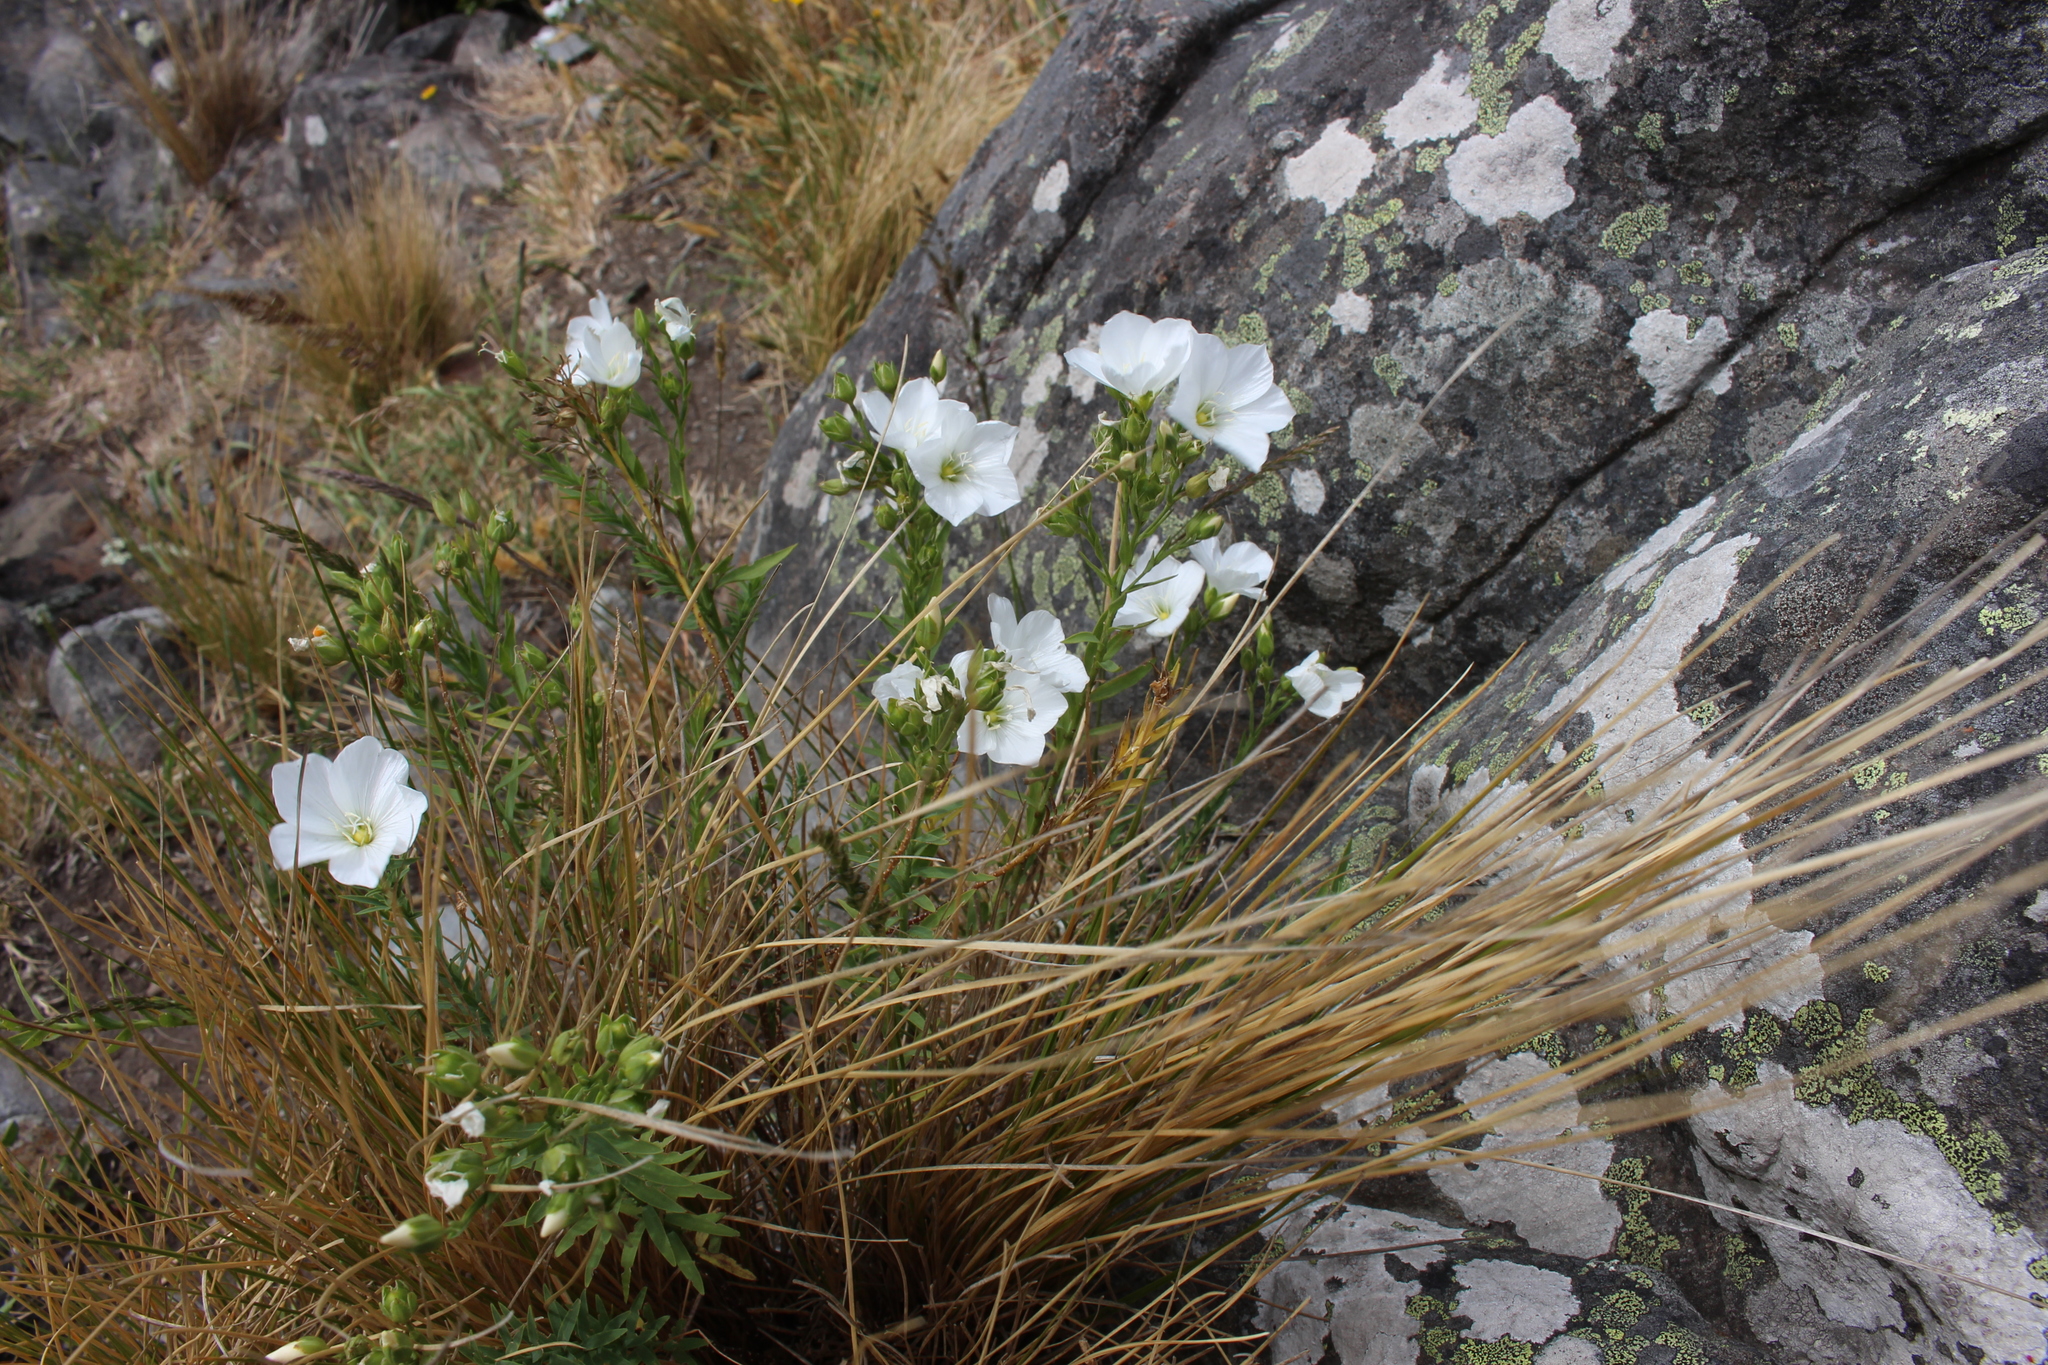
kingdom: Plantae
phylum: Tracheophyta
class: Magnoliopsida
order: Malpighiales
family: Linaceae
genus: Linum
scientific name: Linum monogynum
